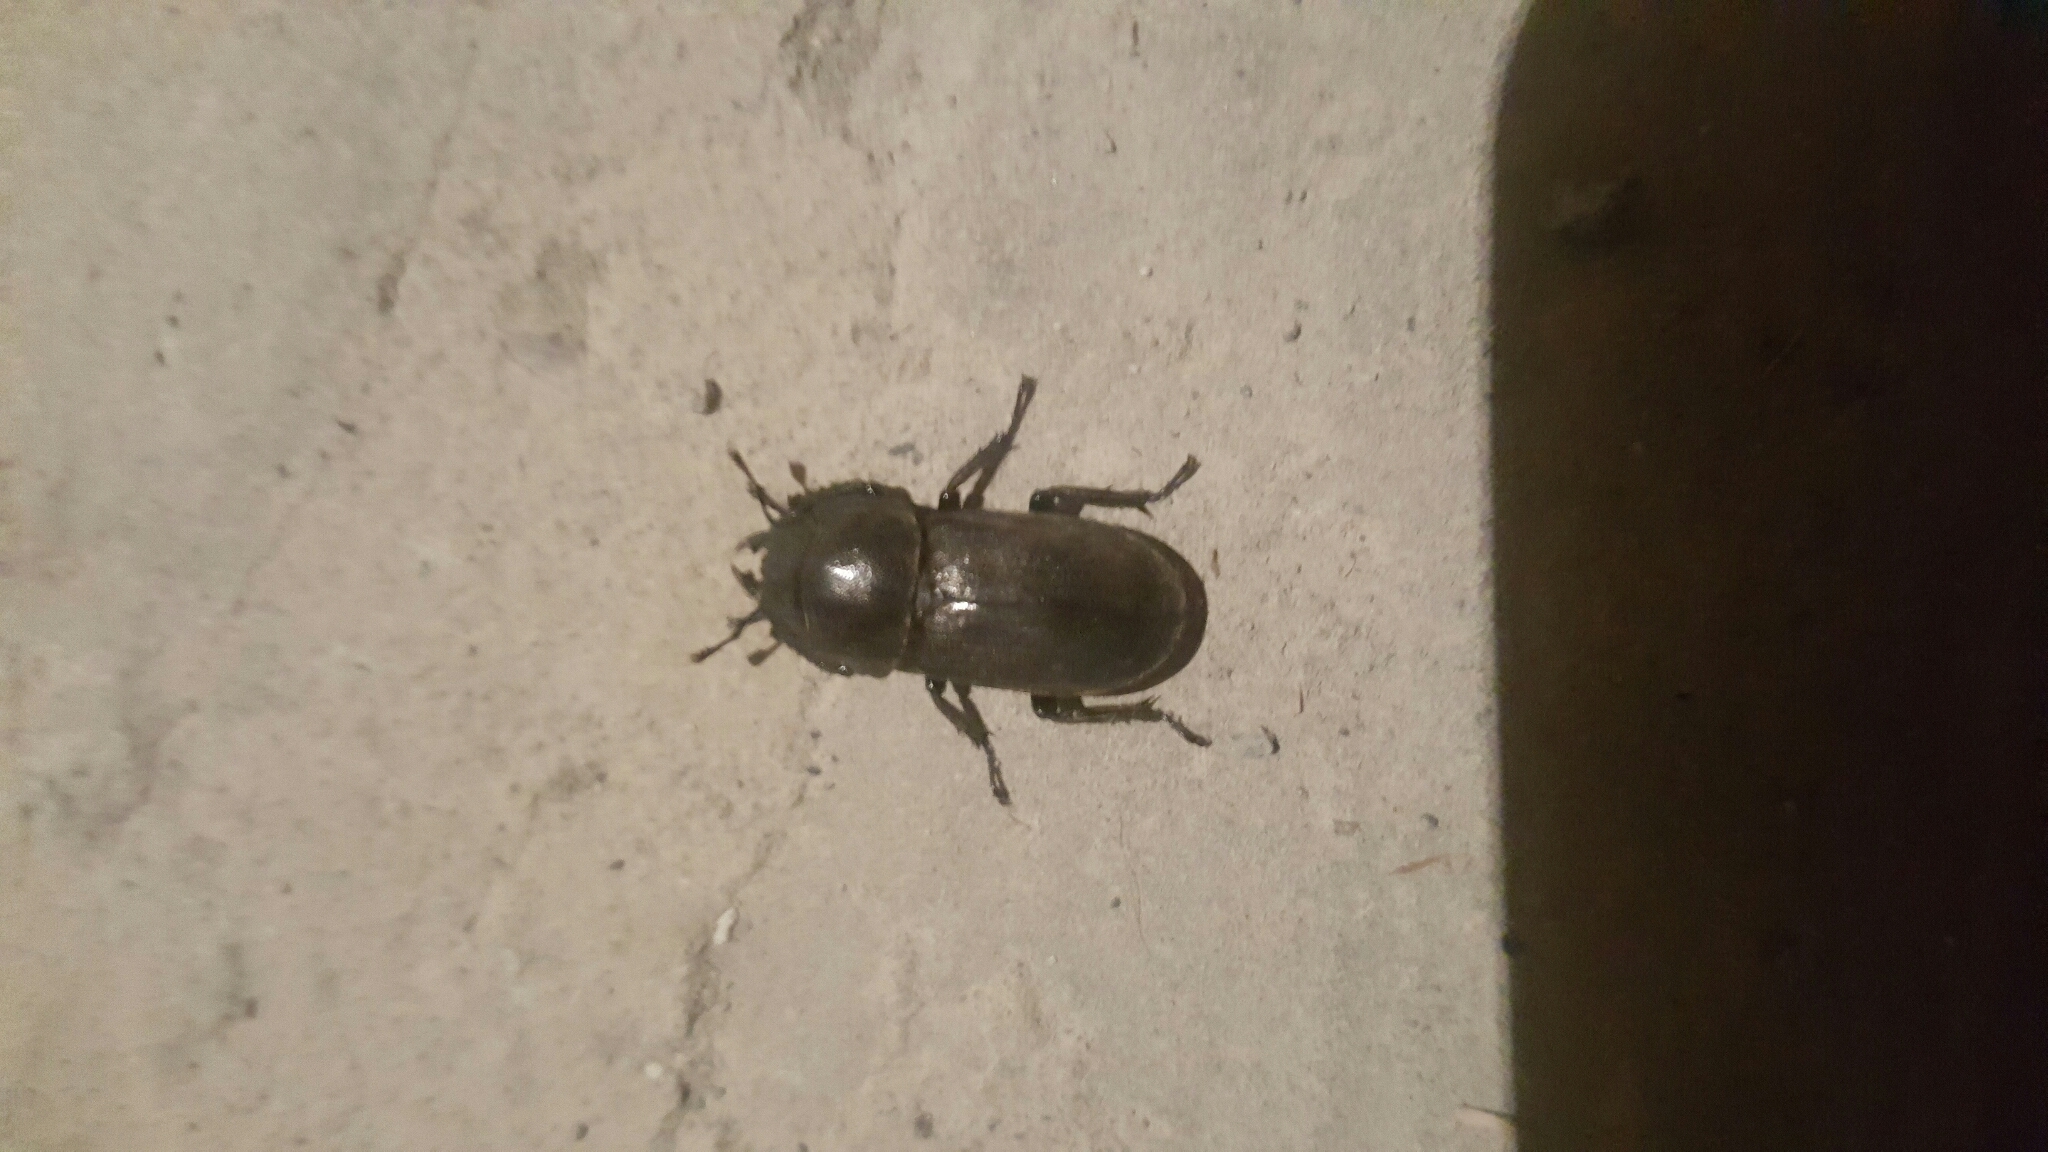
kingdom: Animalia
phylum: Arthropoda
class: Insecta
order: Coleoptera
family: Lucanidae
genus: Dorcus
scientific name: Dorcus parallelipipedus
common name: Lesser stag beetle
